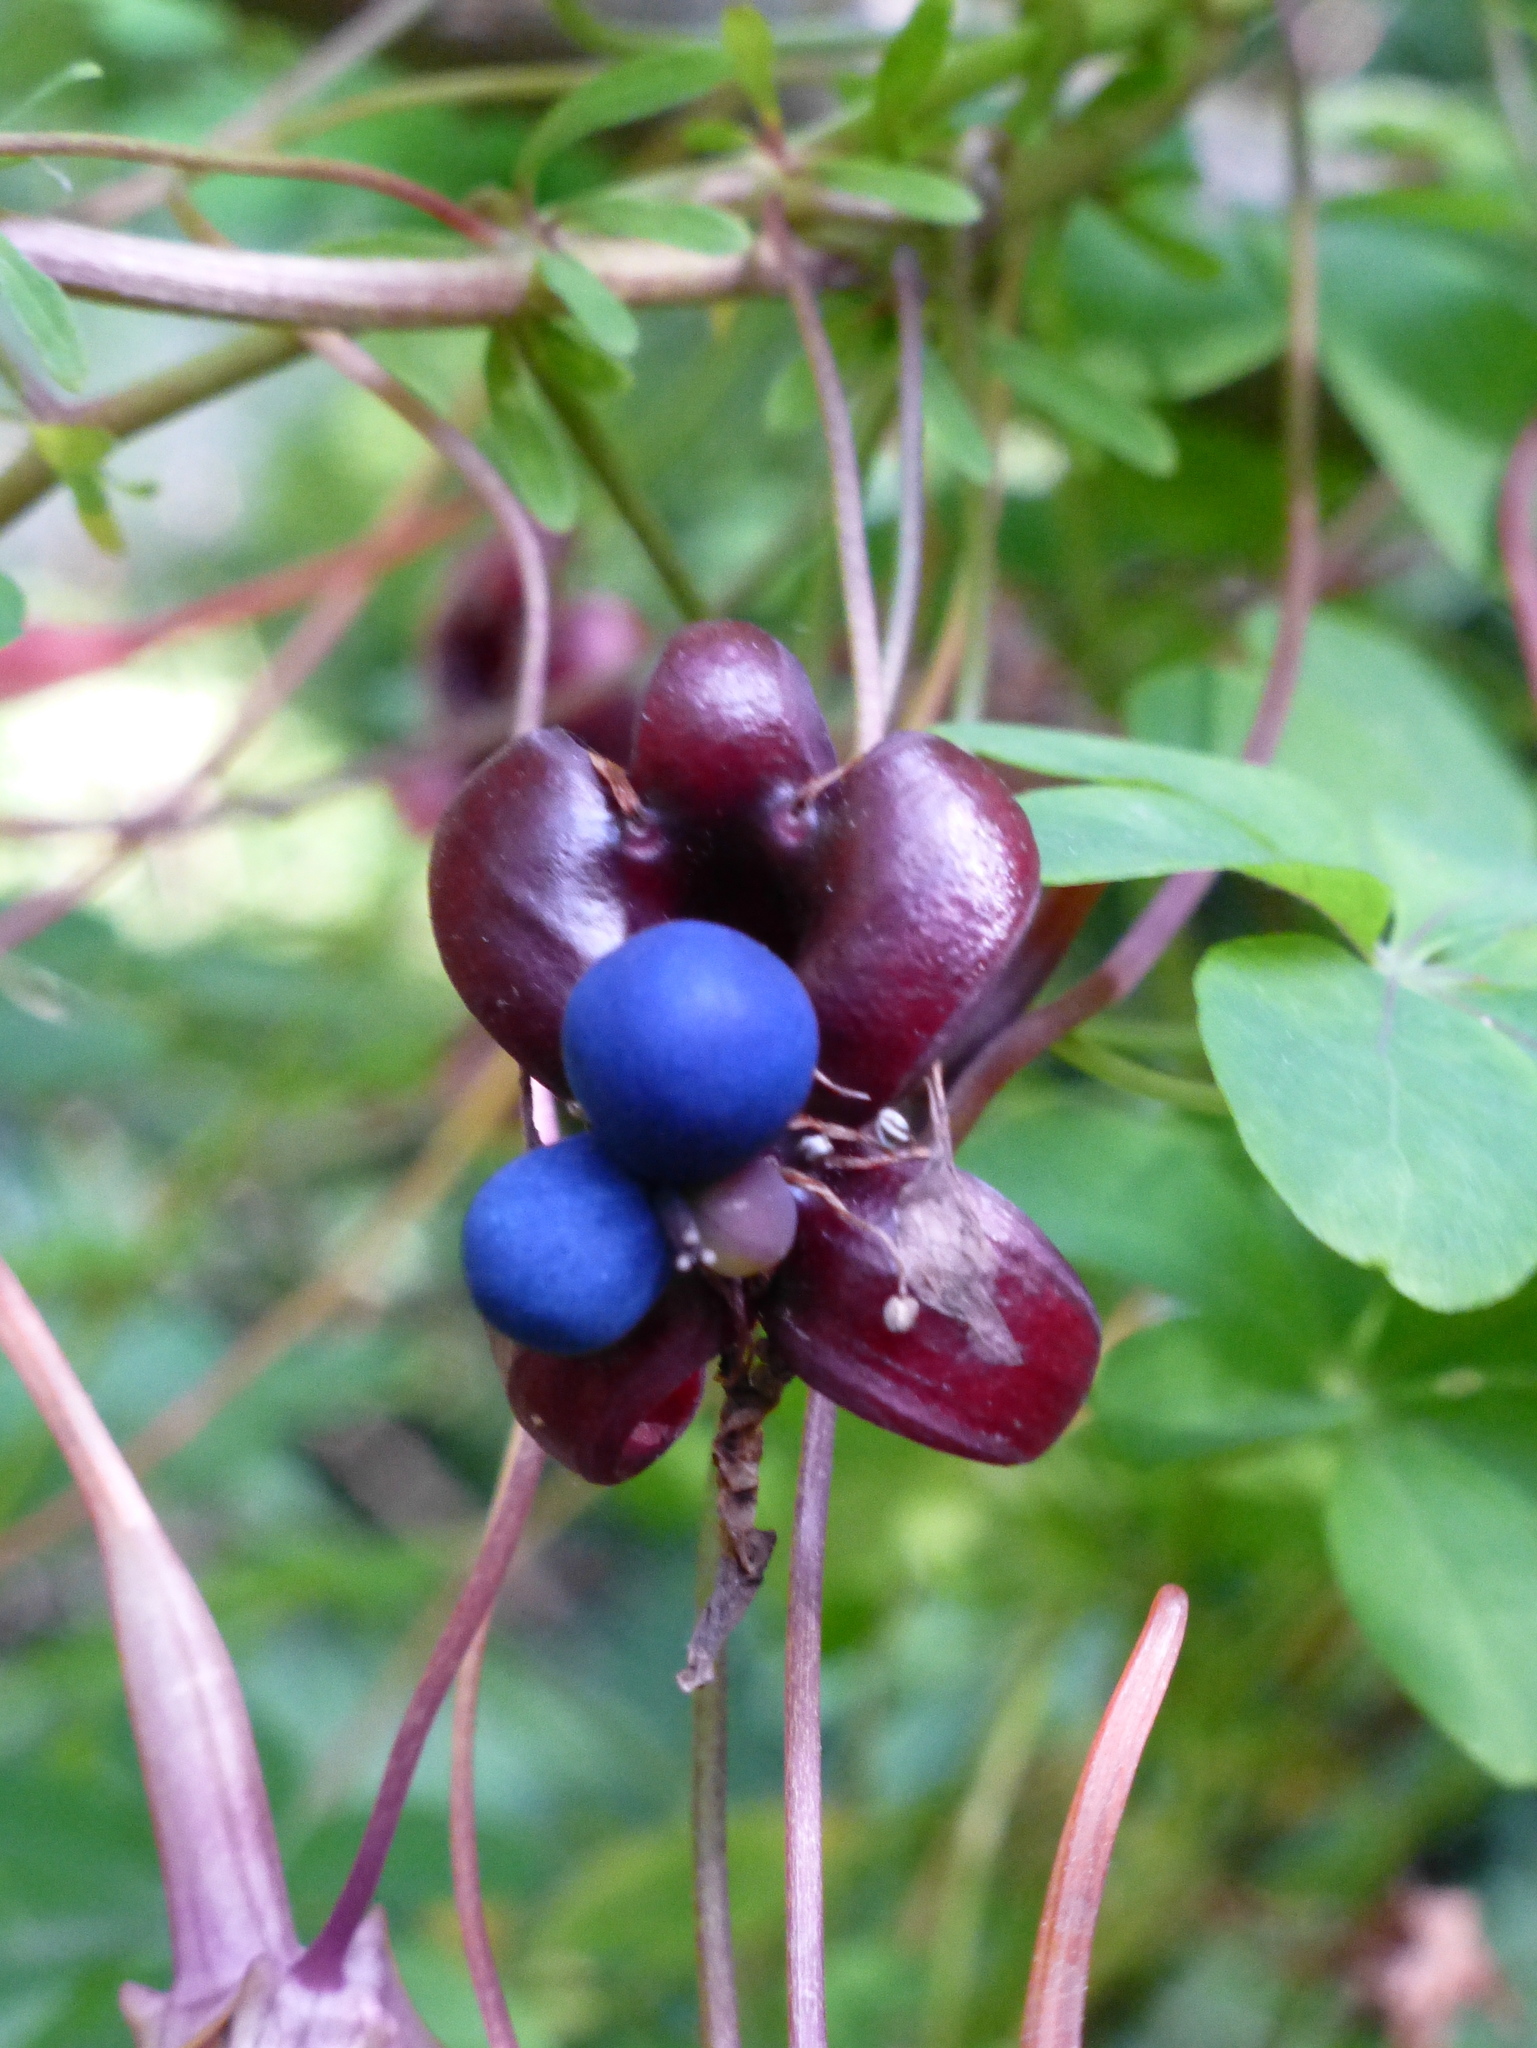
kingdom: Plantae
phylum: Tracheophyta
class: Magnoliopsida
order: Brassicales
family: Tropaeolaceae
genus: Tropaeolum
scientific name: Tropaeolum speciosum
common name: Flame nasturtium
